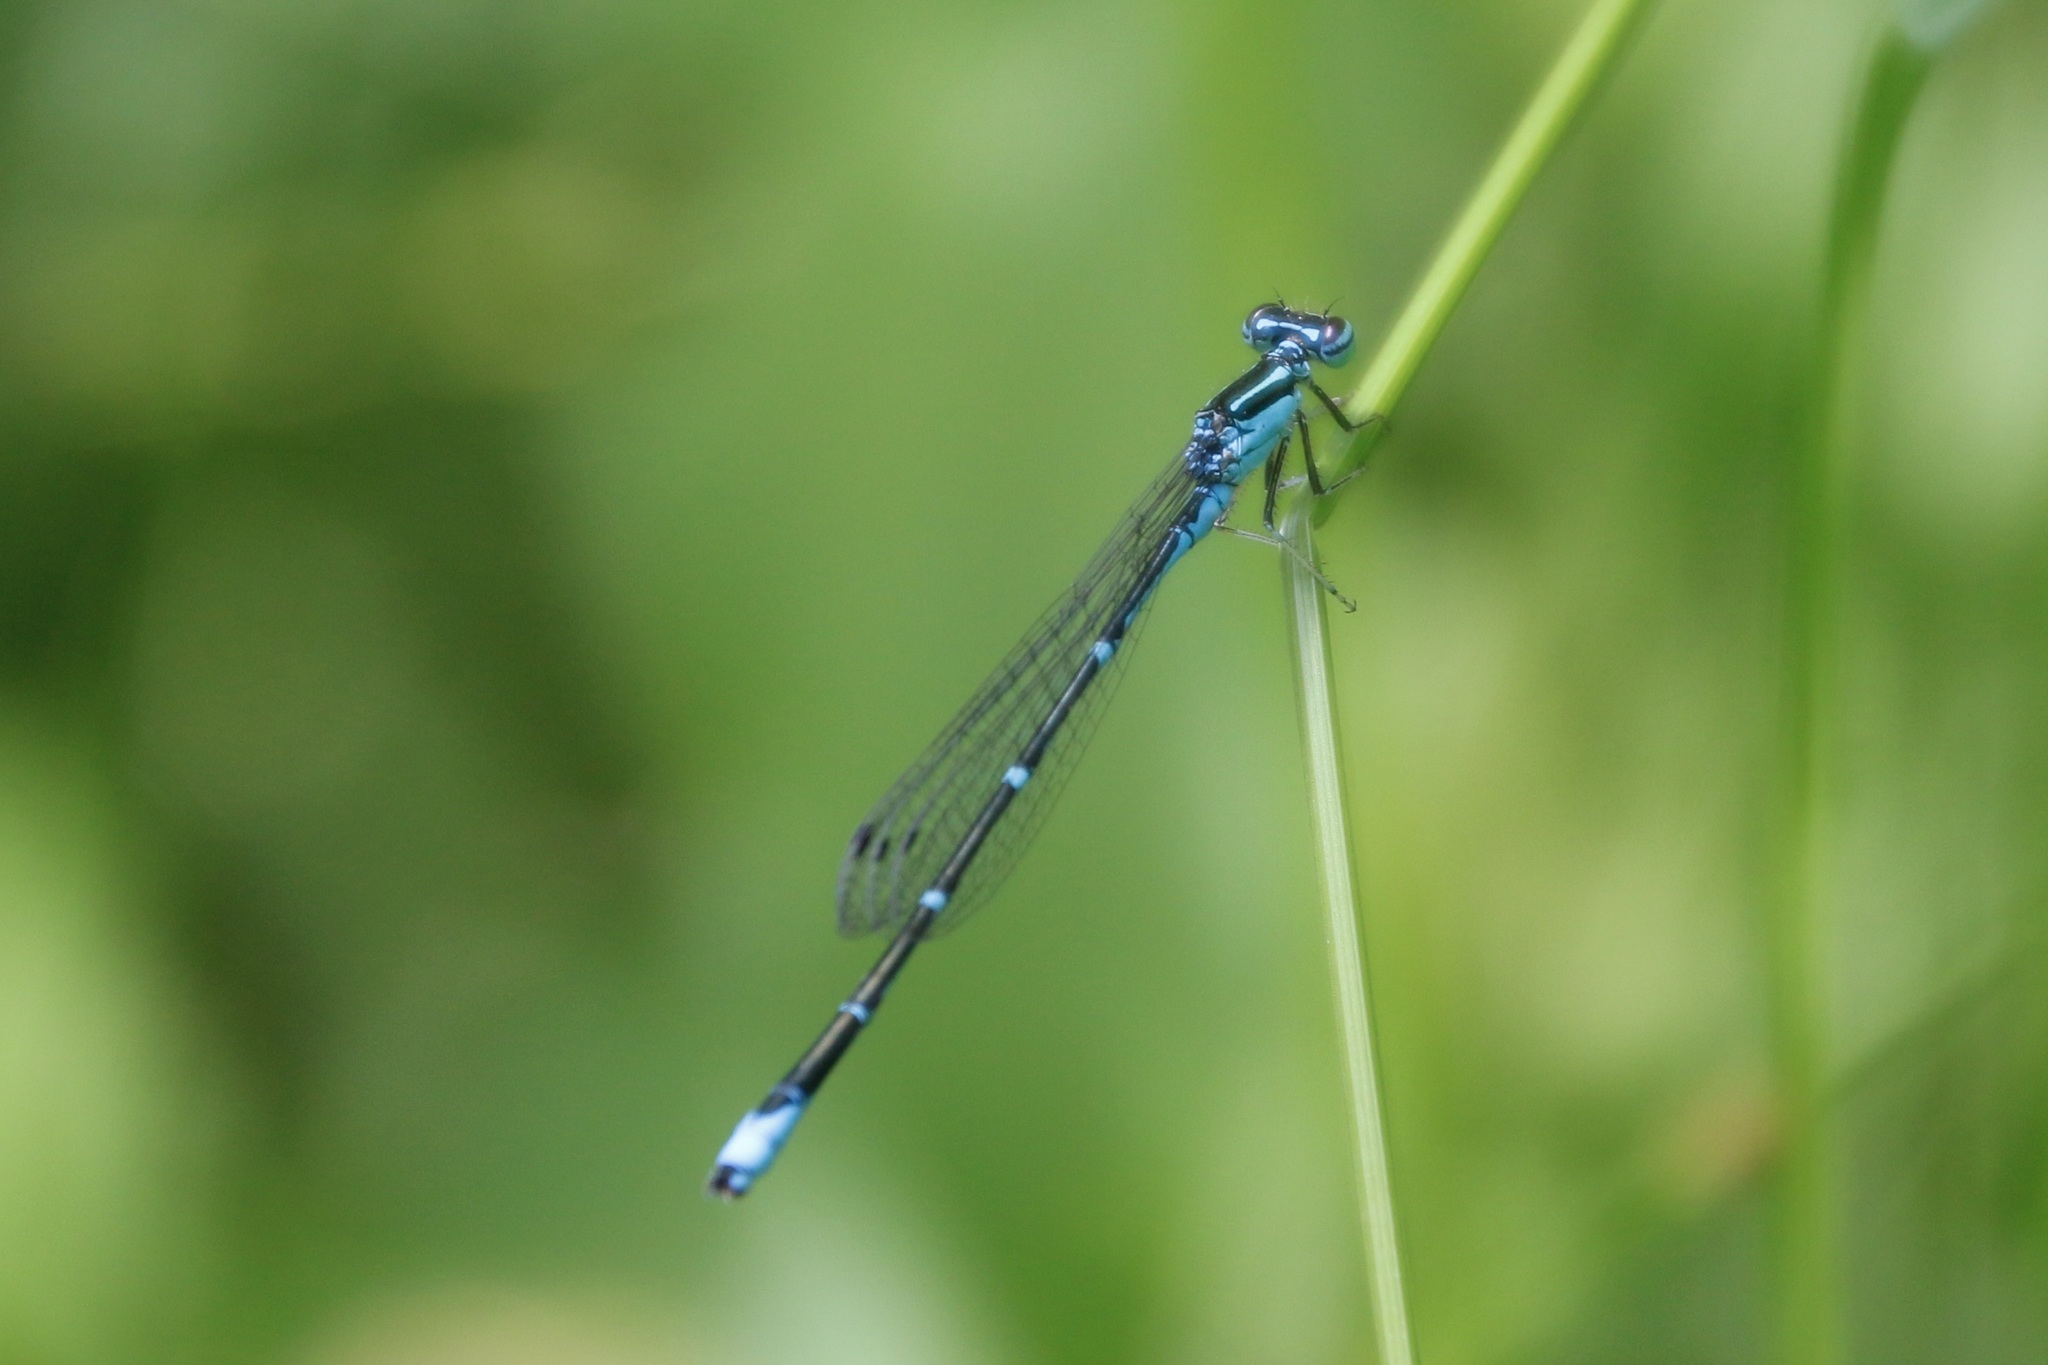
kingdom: Animalia
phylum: Arthropoda
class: Insecta
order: Odonata
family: Coenagrionidae
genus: Enallagma
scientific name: Enallagma exsulans
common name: Stream bluet
